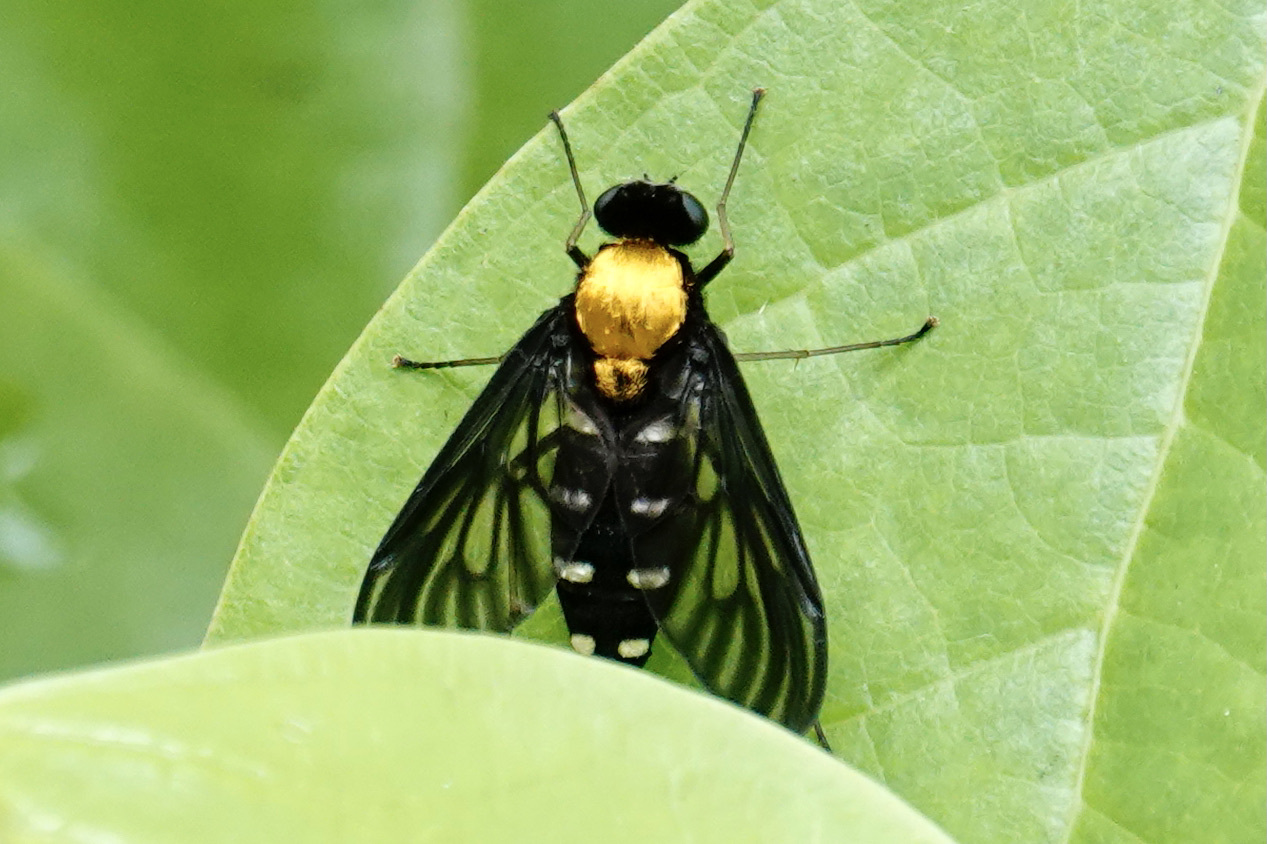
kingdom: Animalia
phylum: Arthropoda
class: Insecta
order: Diptera
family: Rhagionidae
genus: Chrysopilus
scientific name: Chrysopilus thoracicus
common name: Golden-backed snipe fly
